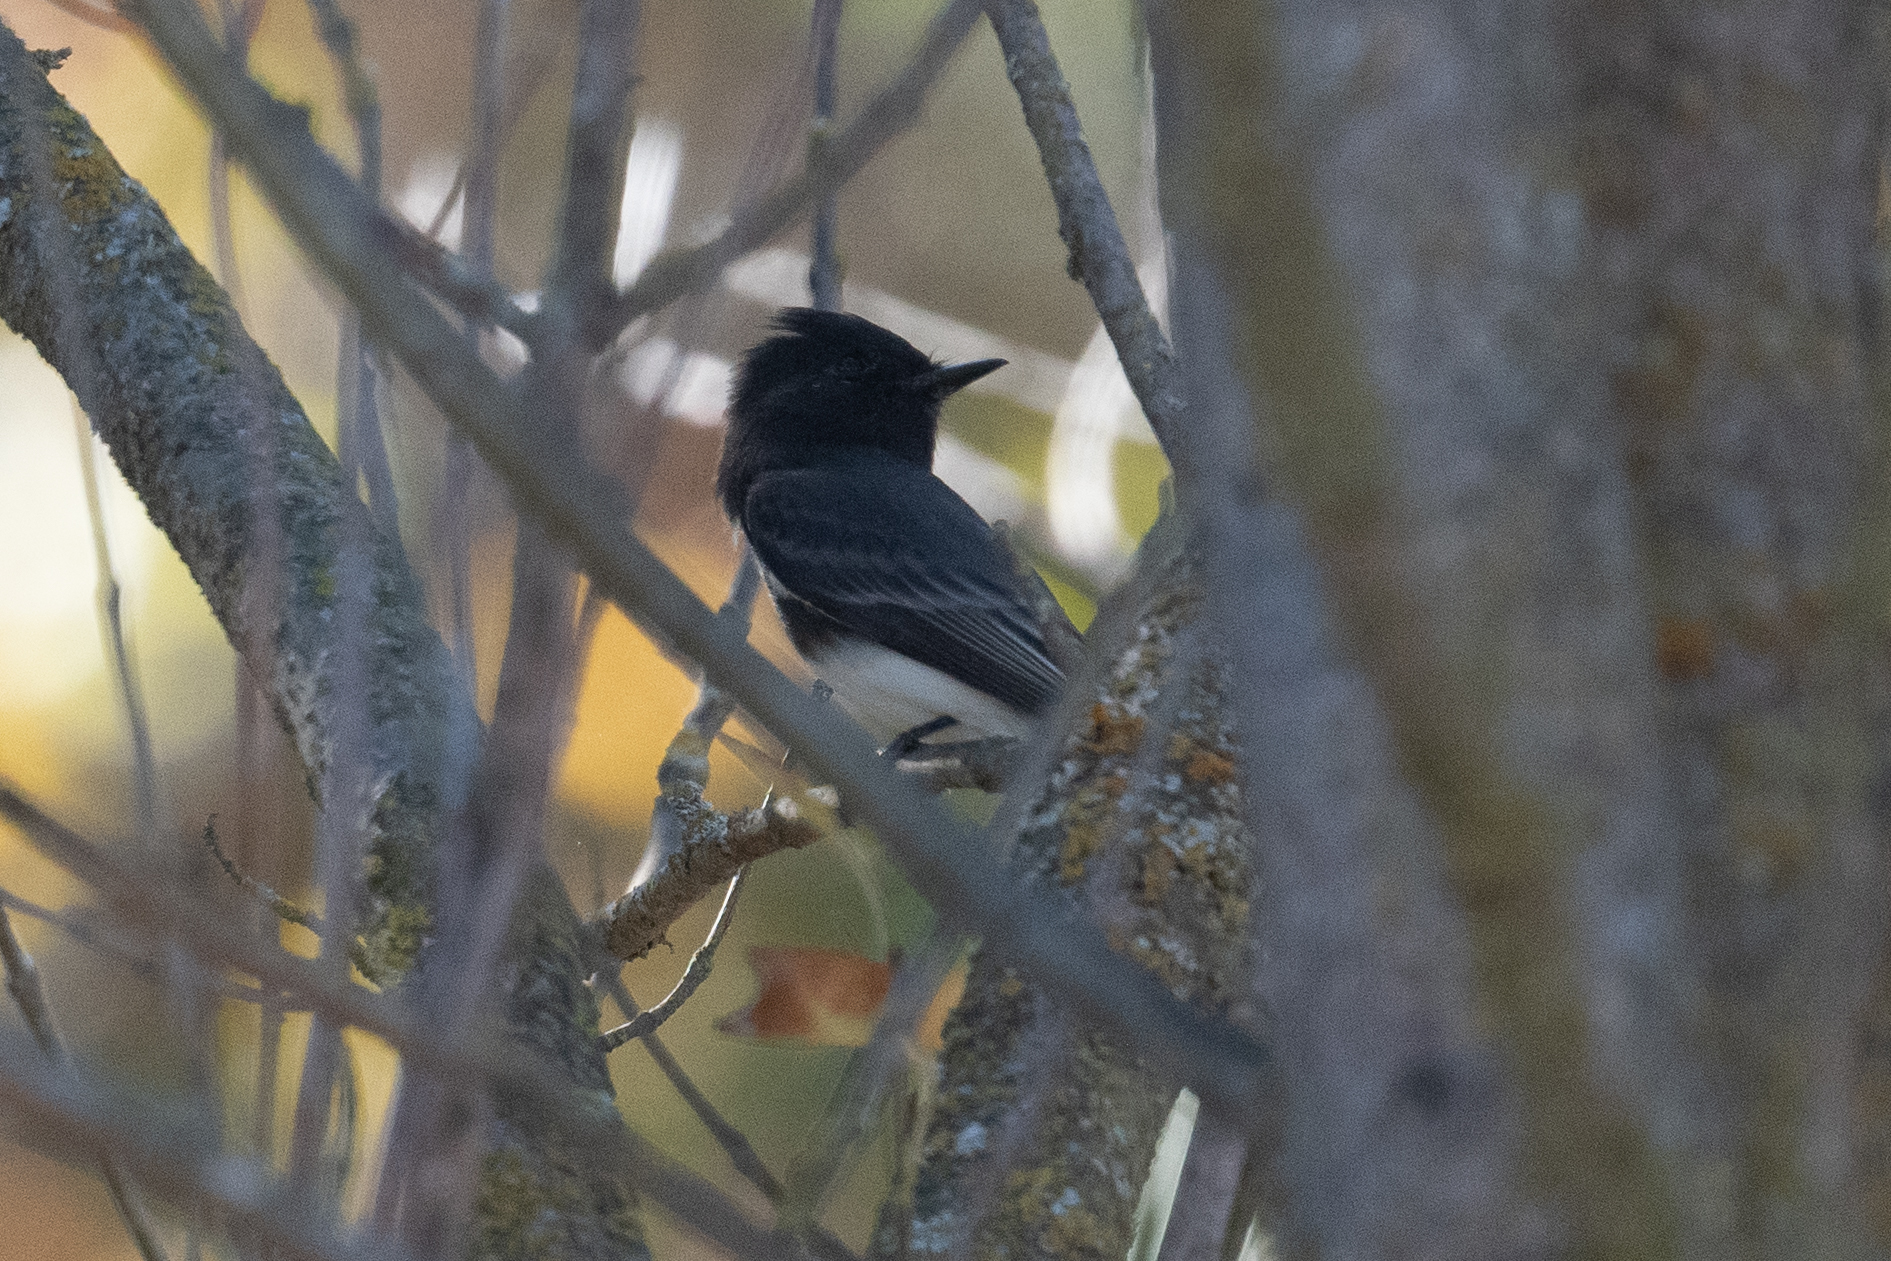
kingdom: Animalia
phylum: Chordata
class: Aves
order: Passeriformes
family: Tyrannidae
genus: Sayornis
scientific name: Sayornis nigricans
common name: Black phoebe
